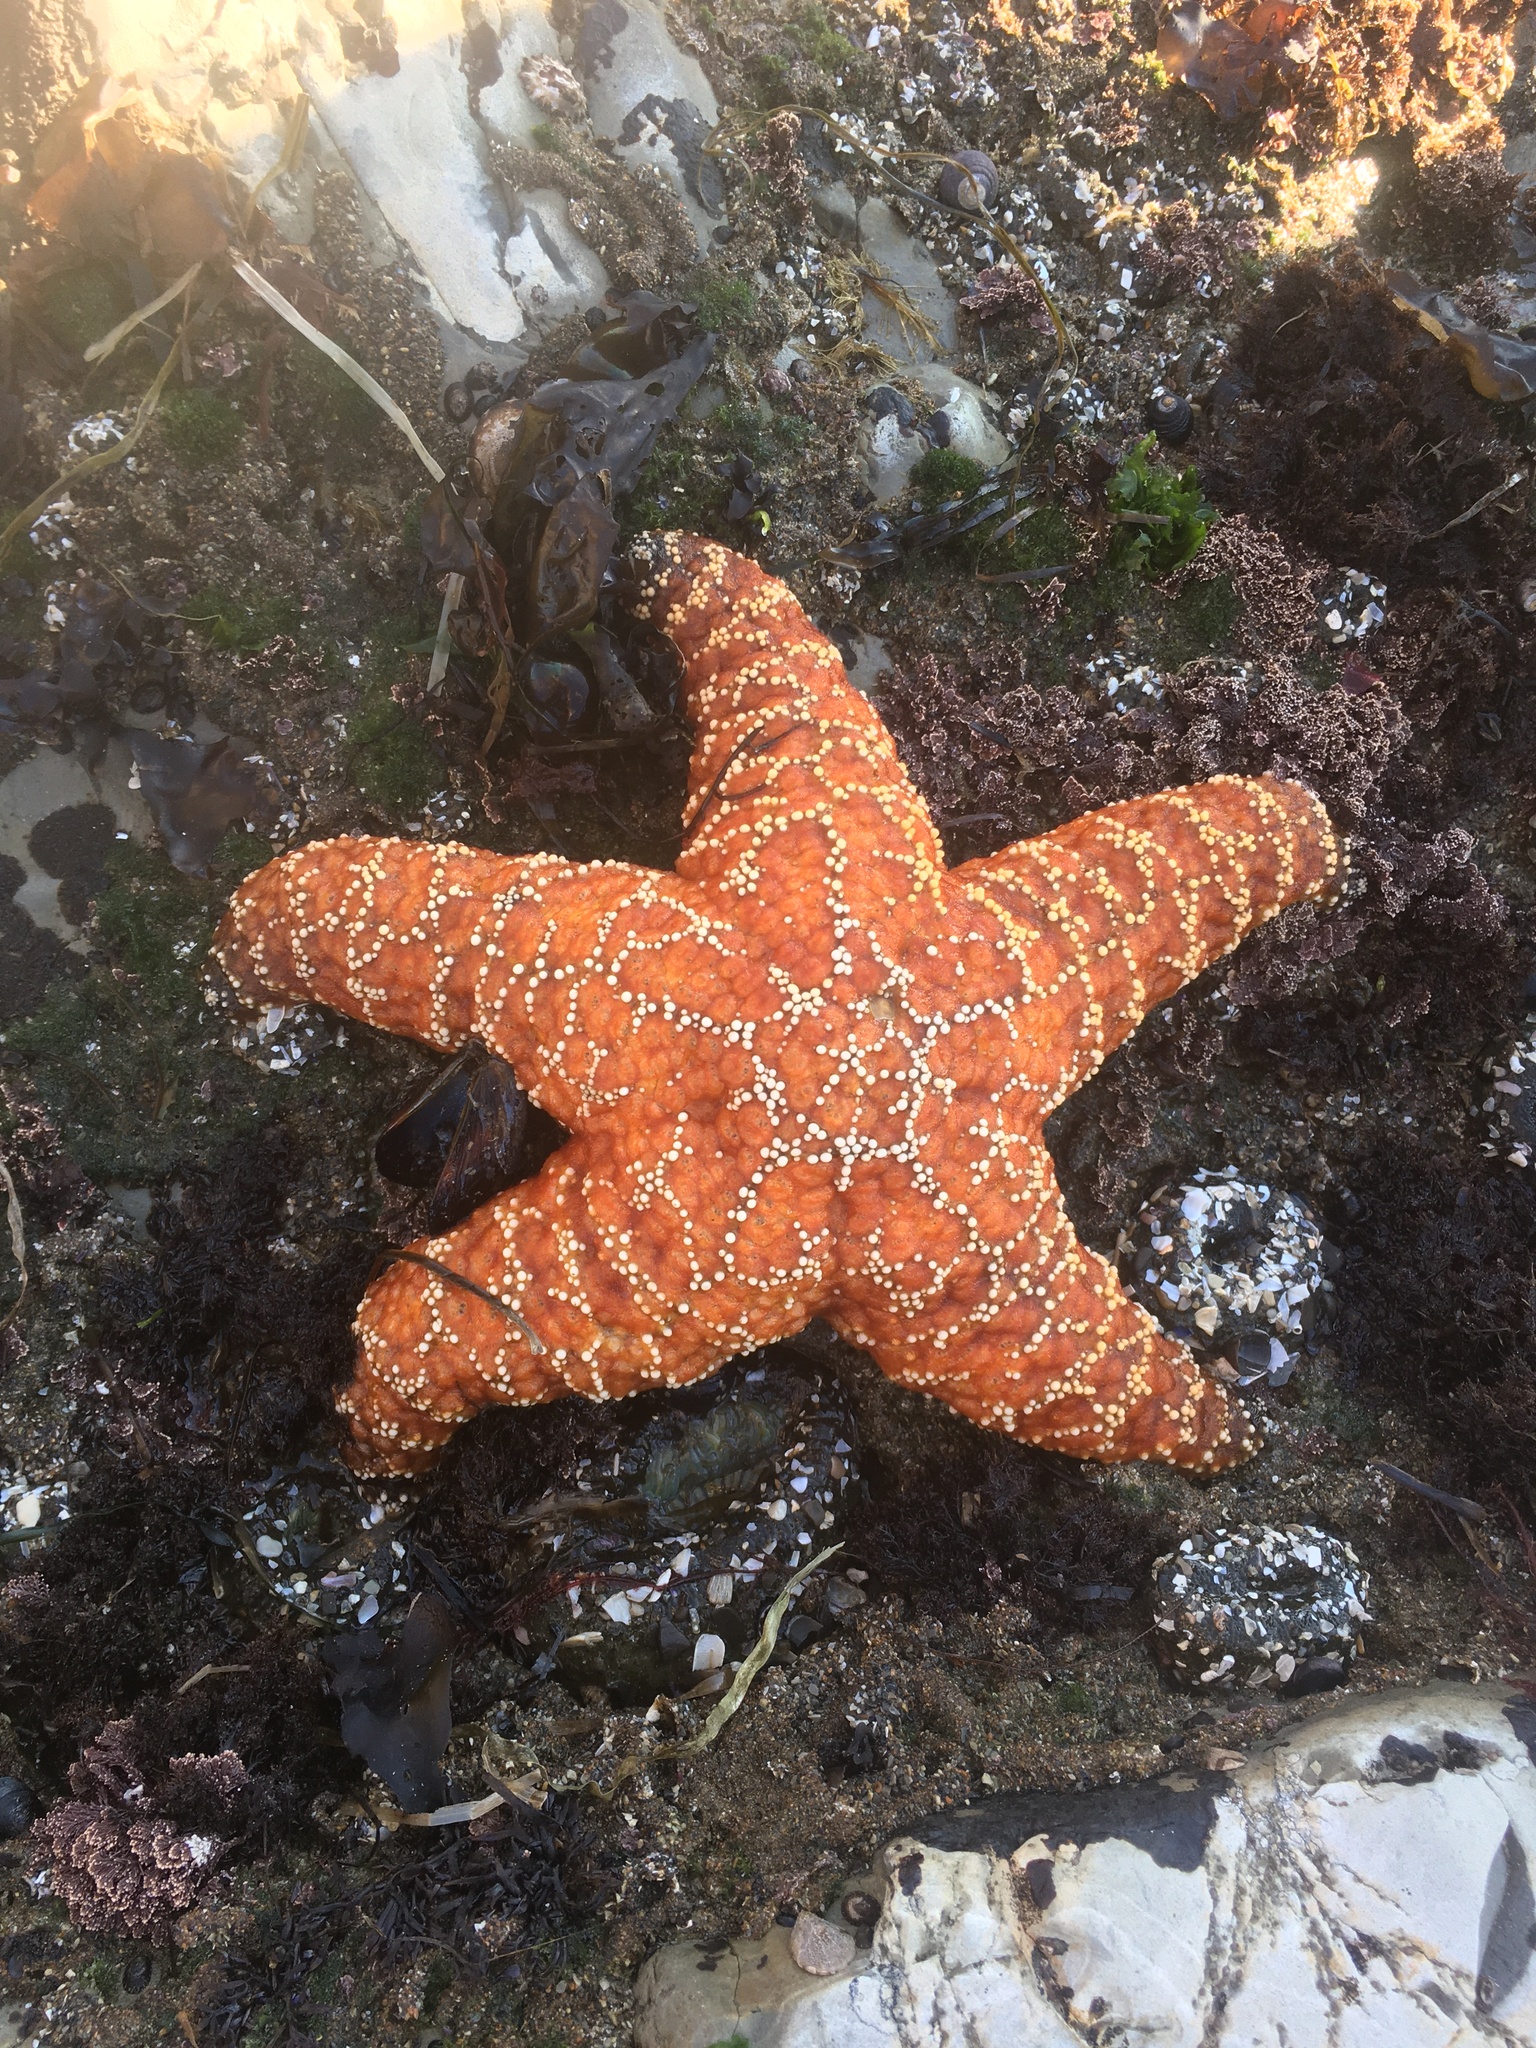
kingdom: Animalia
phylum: Echinodermata
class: Asteroidea
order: Forcipulatida
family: Asteriidae
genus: Pisaster
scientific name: Pisaster ochraceus
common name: Ochre stars
